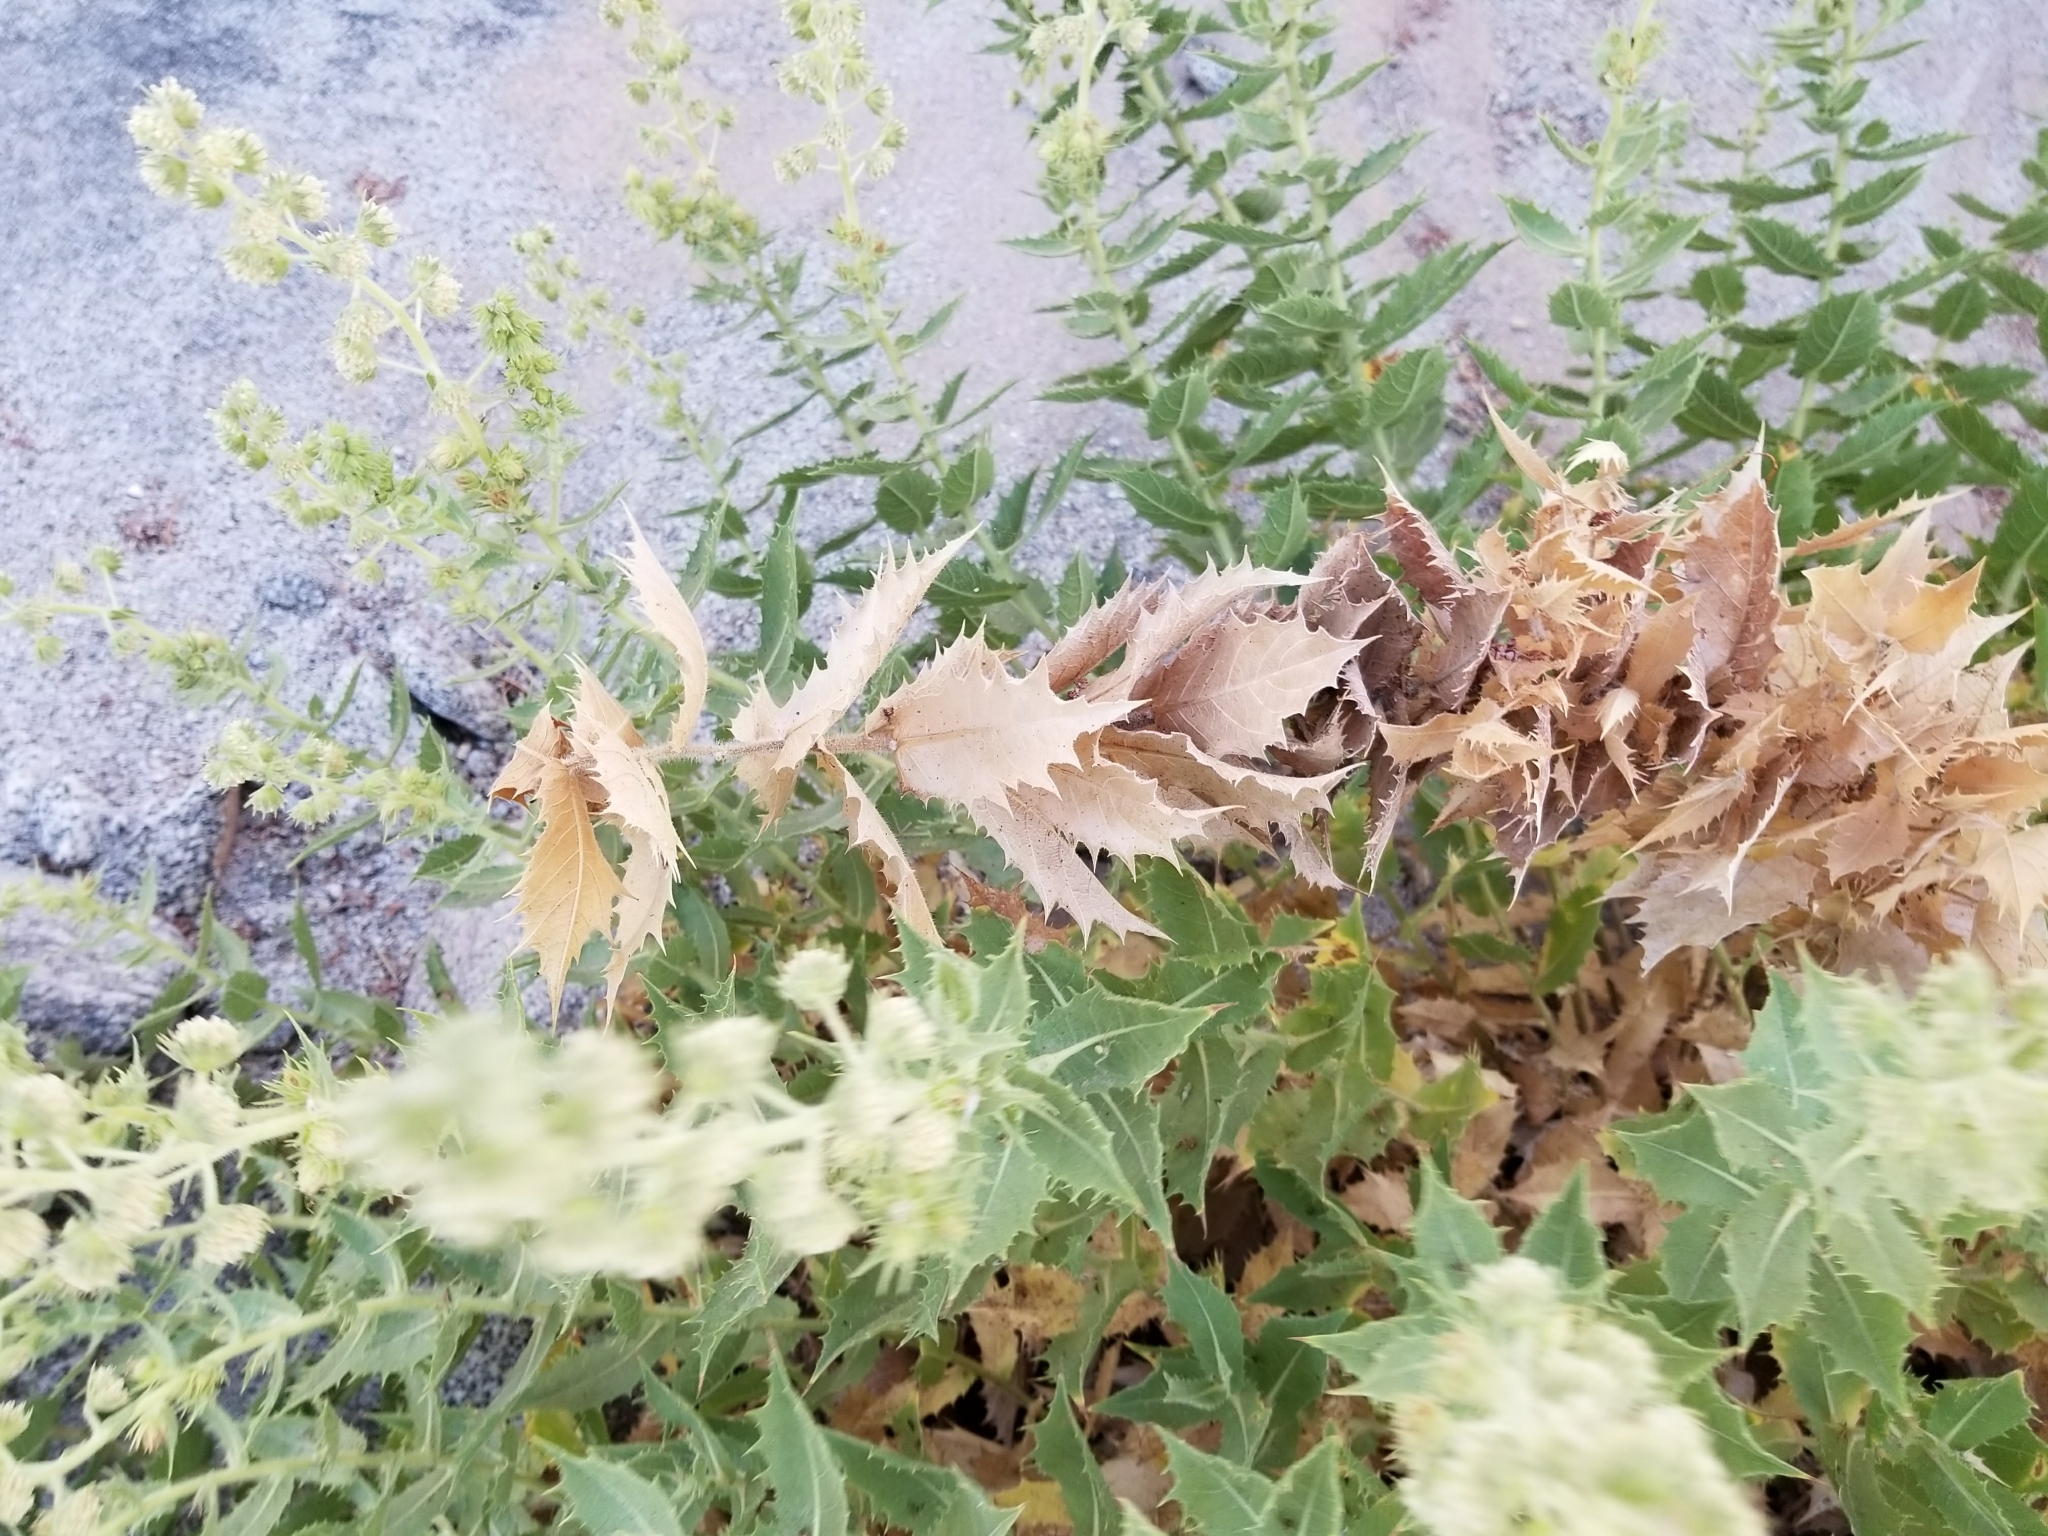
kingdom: Plantae
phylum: Tracheophyta
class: Magnoliopsida
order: Asterales
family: Asteraceae
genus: Ambrosia
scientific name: Ambrosia ilicifolia
